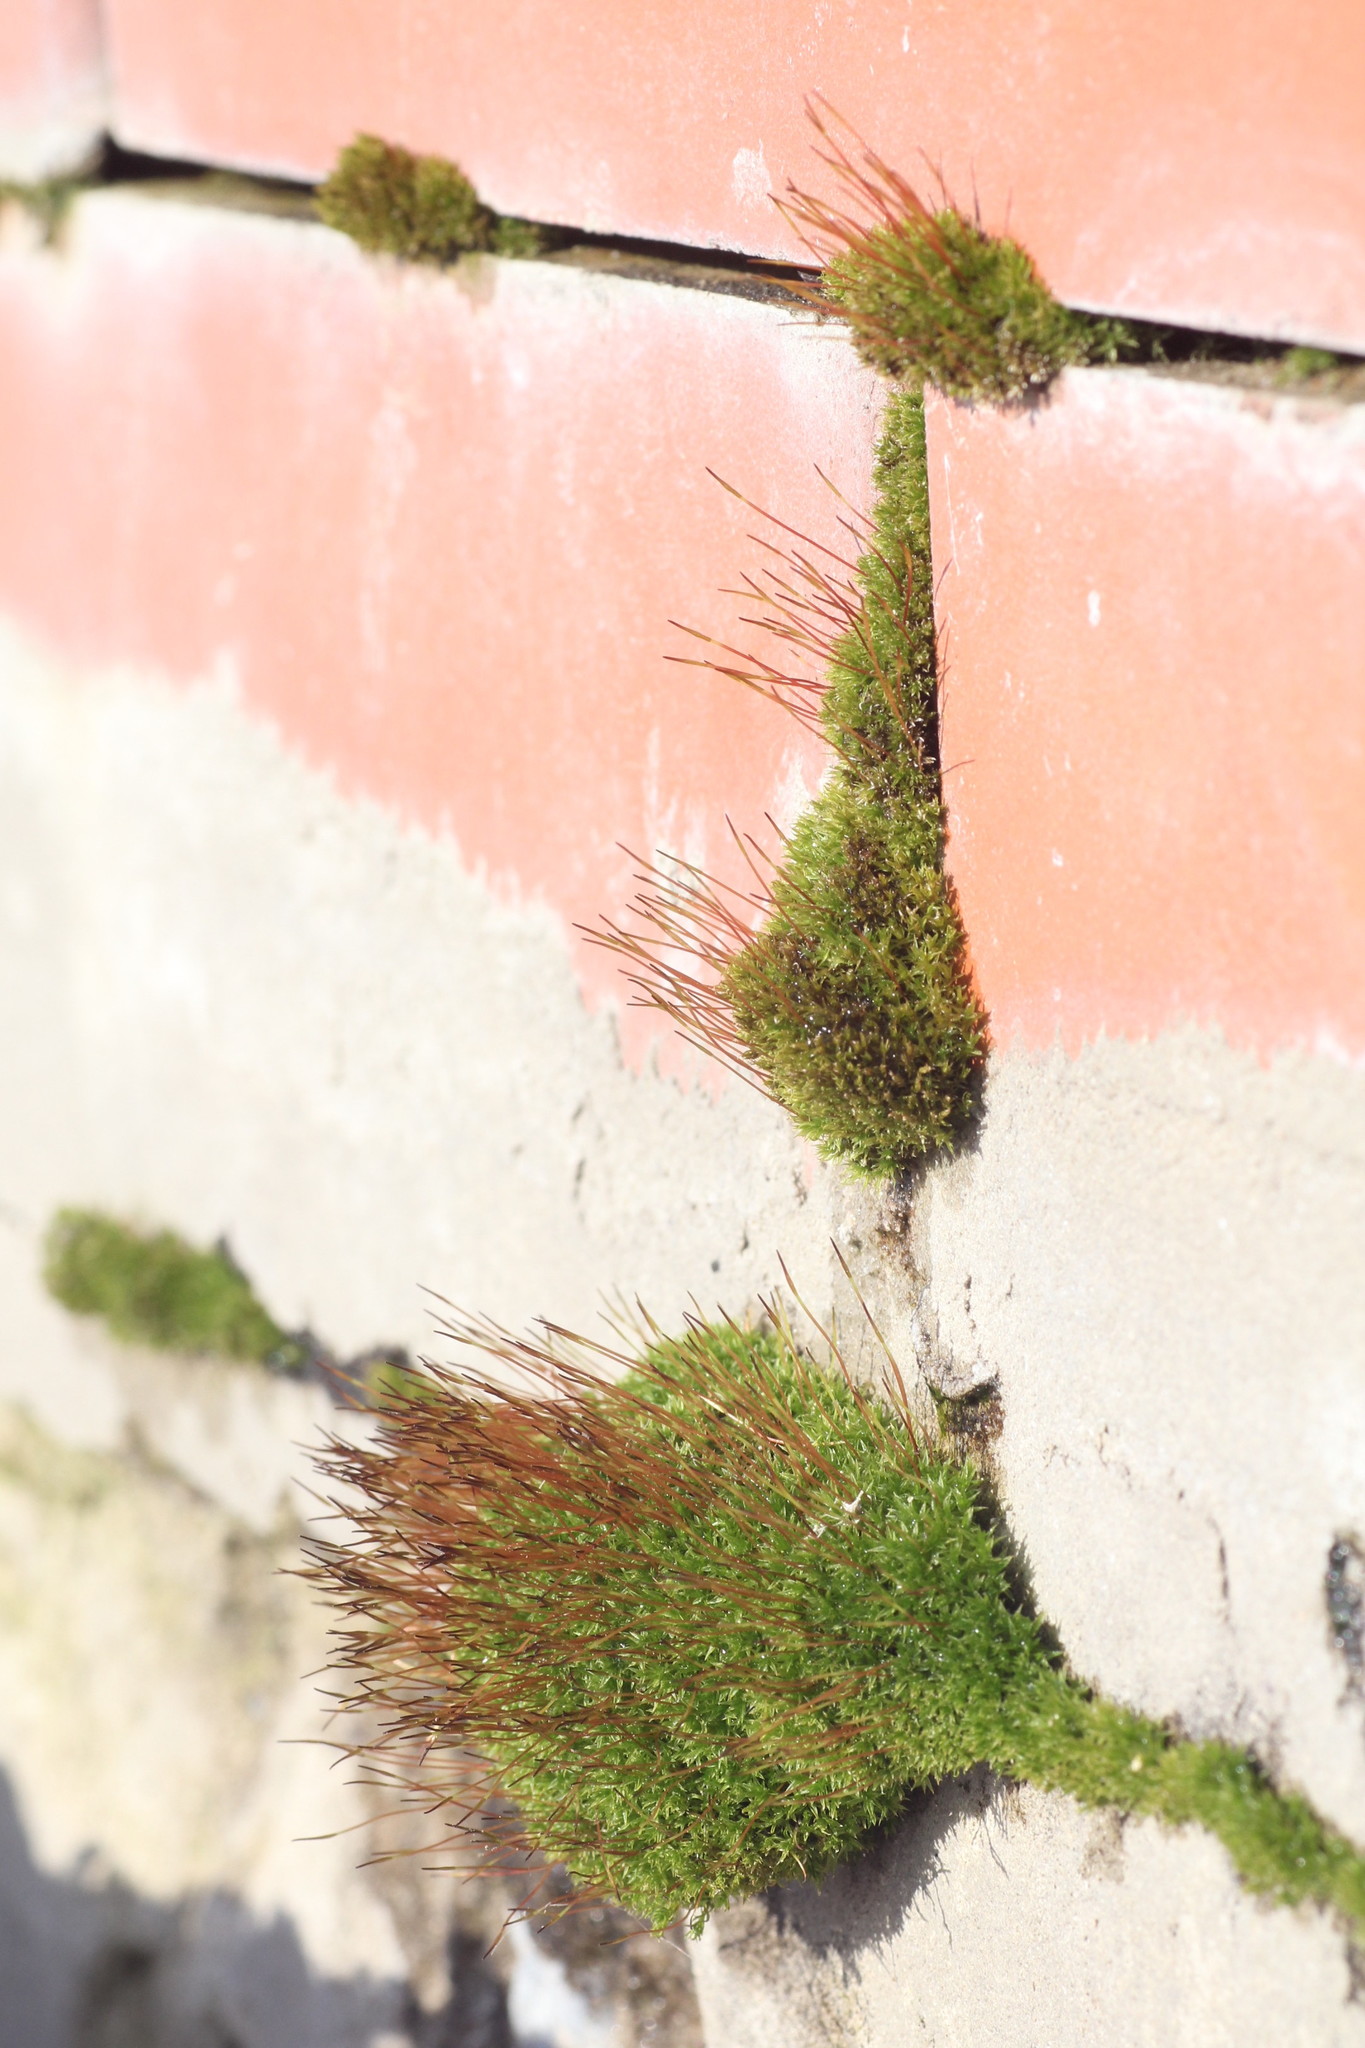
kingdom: Plantae
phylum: Bryophyta
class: Bryopsida
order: Dicranales
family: Ditrichaceae
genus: Ceratodon
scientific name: Ceratodon purpureus
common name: Redshank
